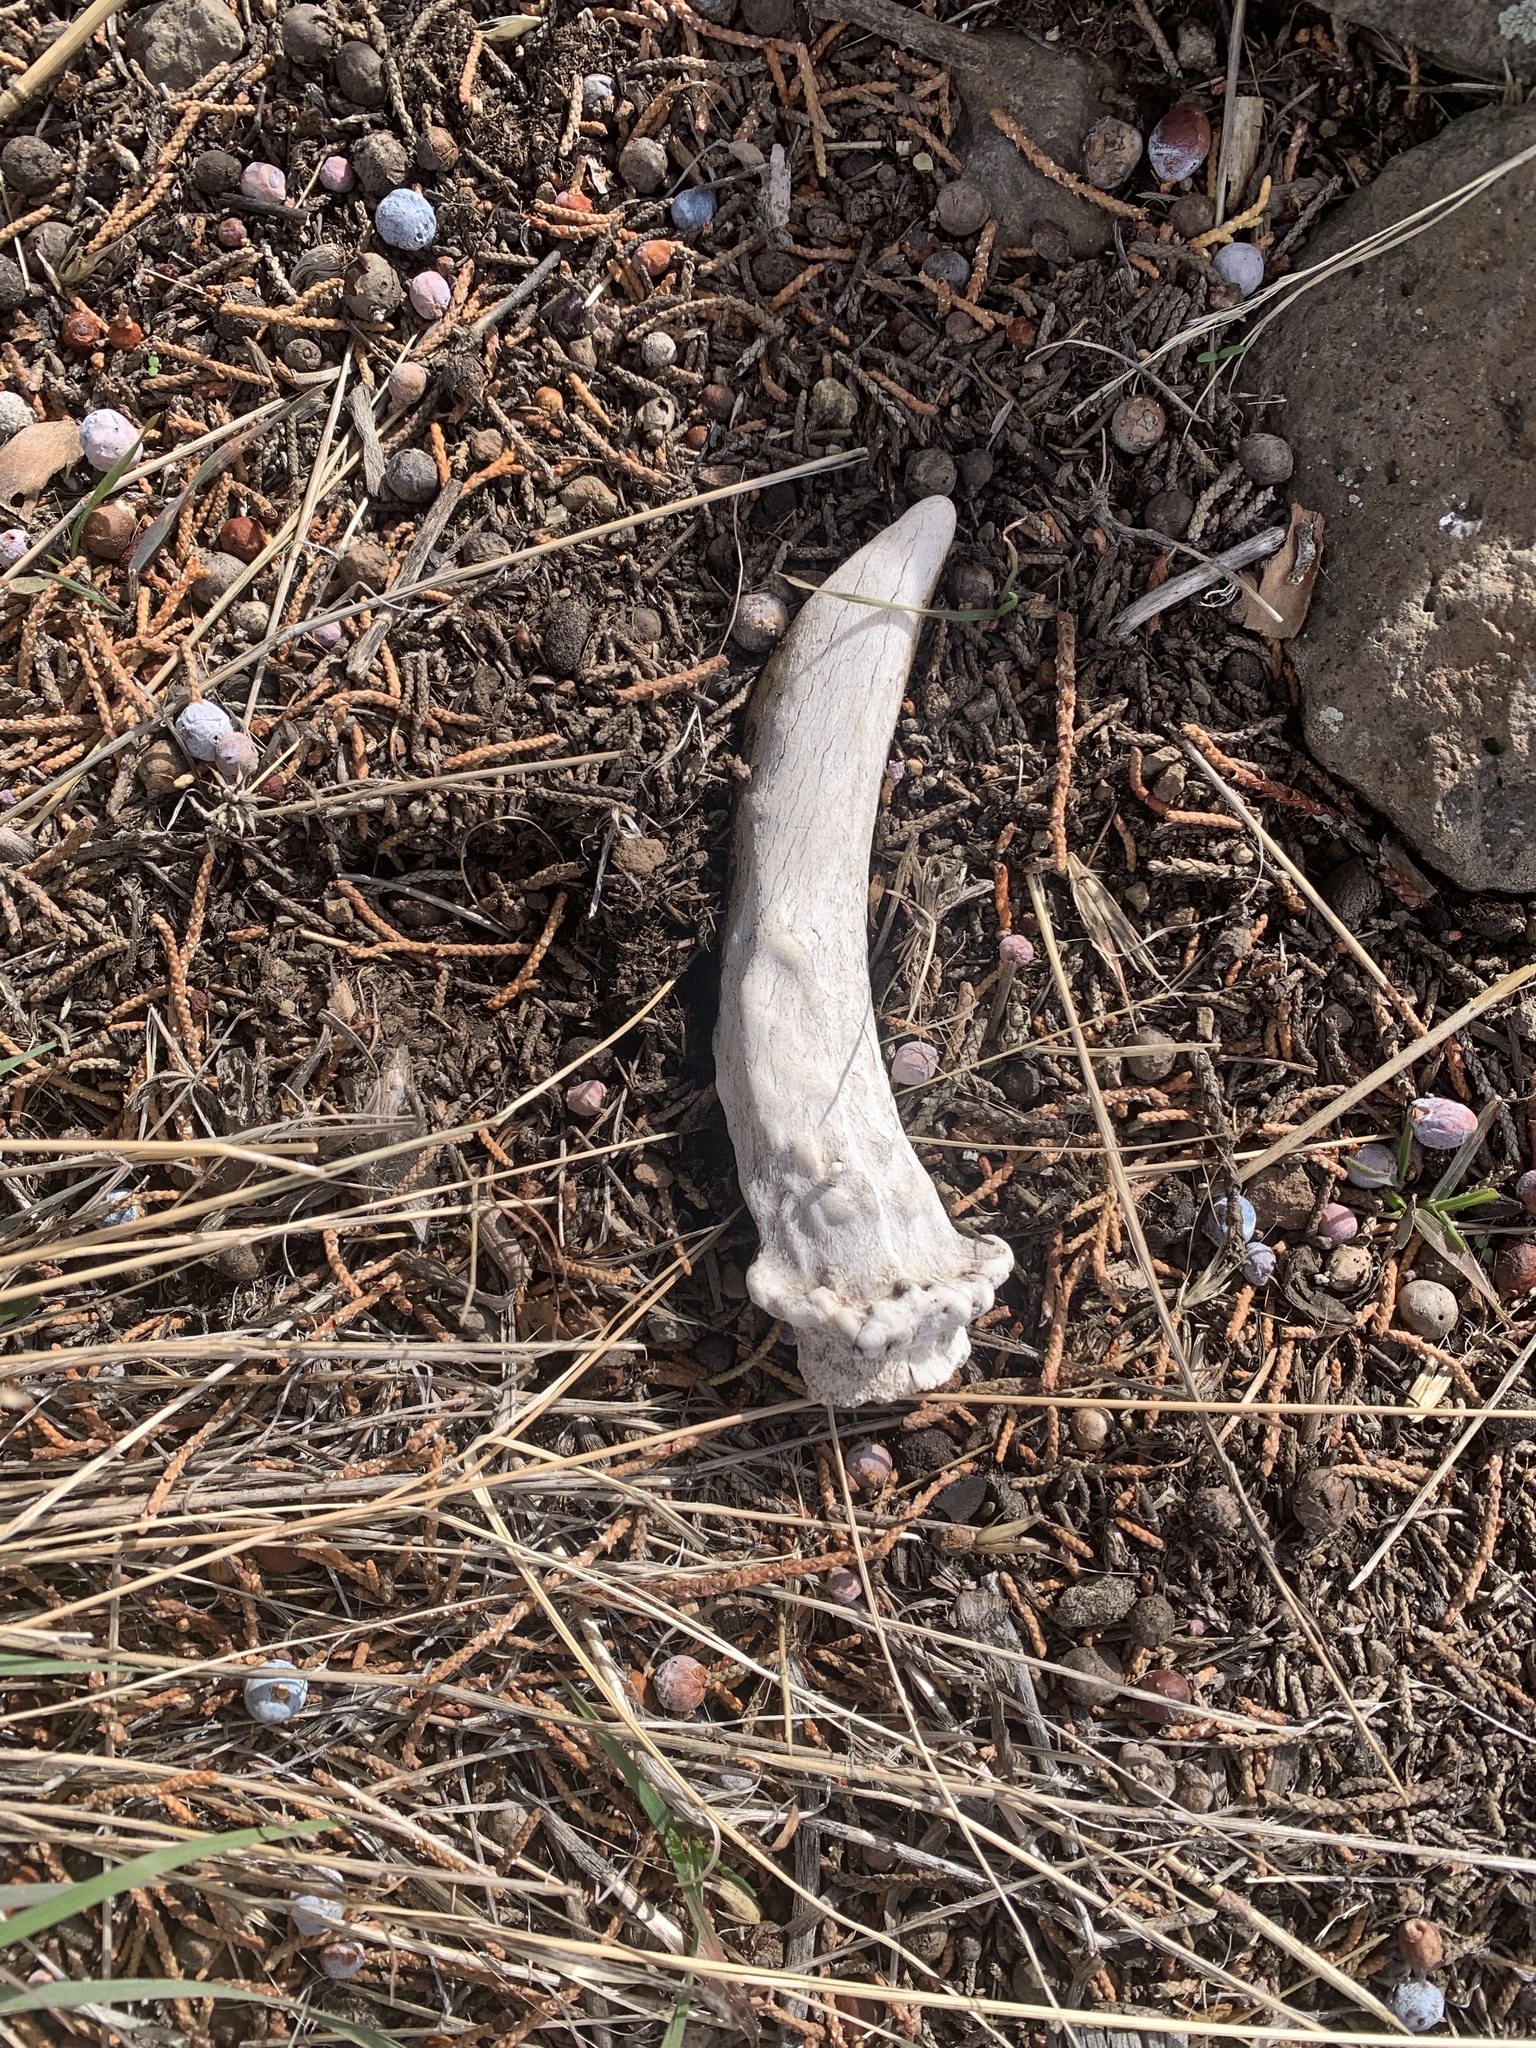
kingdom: Animalia
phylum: Chordata
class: Mammalia
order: Artiodactyla
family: Cervidae
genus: Odocoileus
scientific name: Odocoileus hemionus
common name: Mule deer
